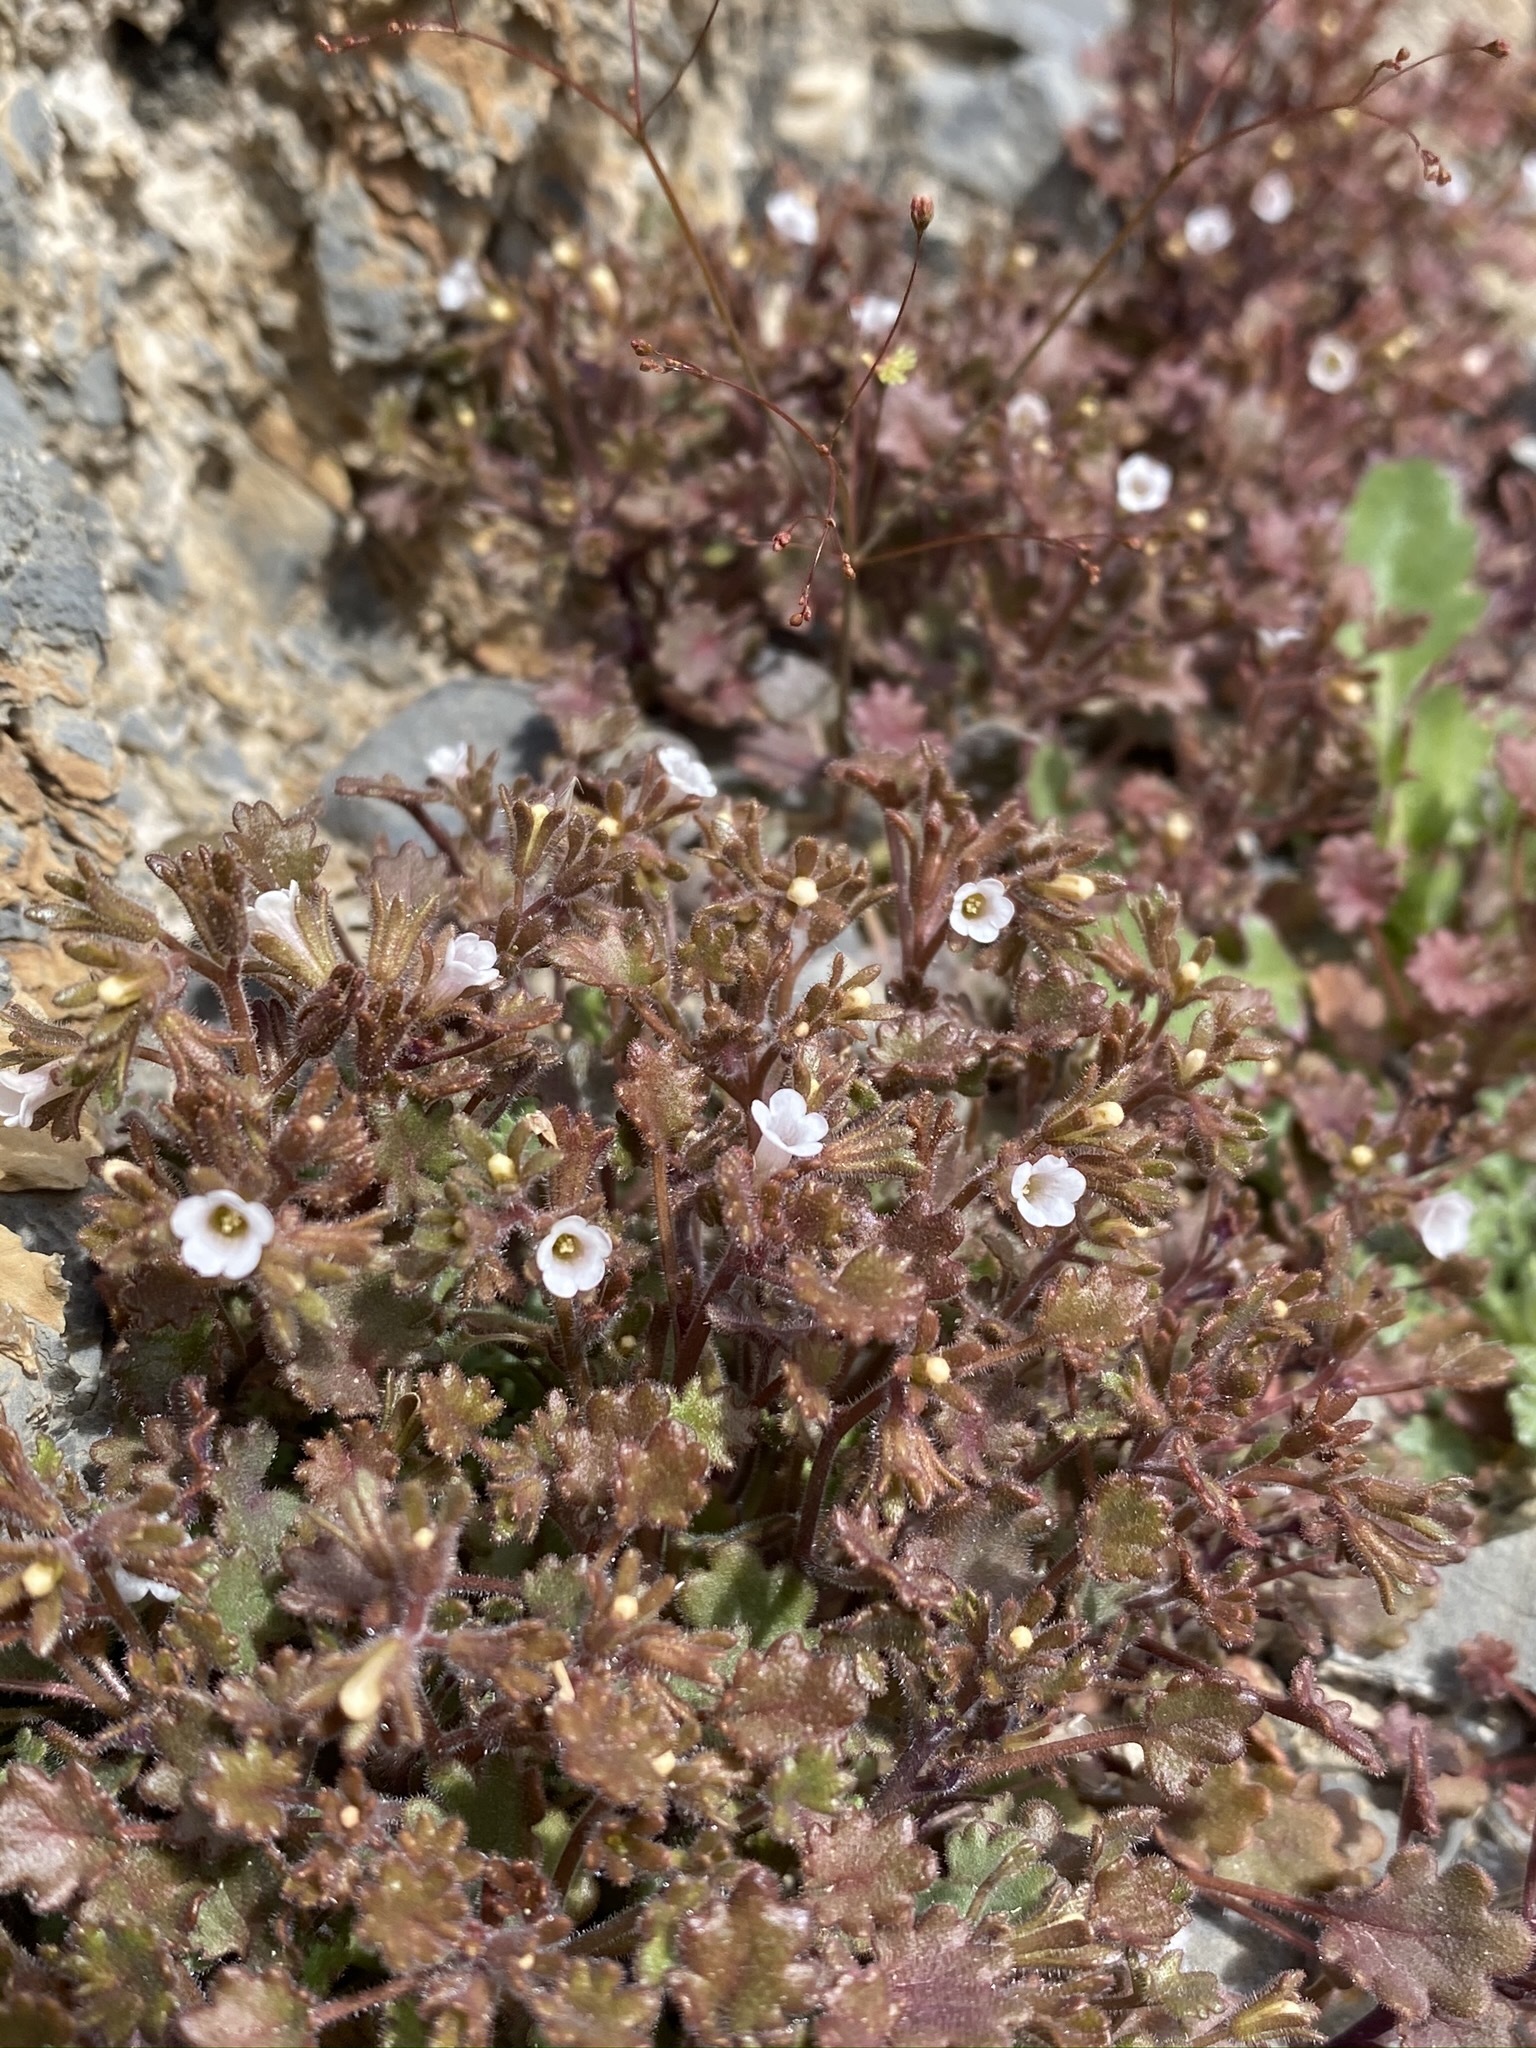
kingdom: Plantae
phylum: Tracheophyta
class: Magnoliopsida
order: Boraginales
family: Hydrophyllaceae
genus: Phacelia
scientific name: Phacelia rotundifolia
